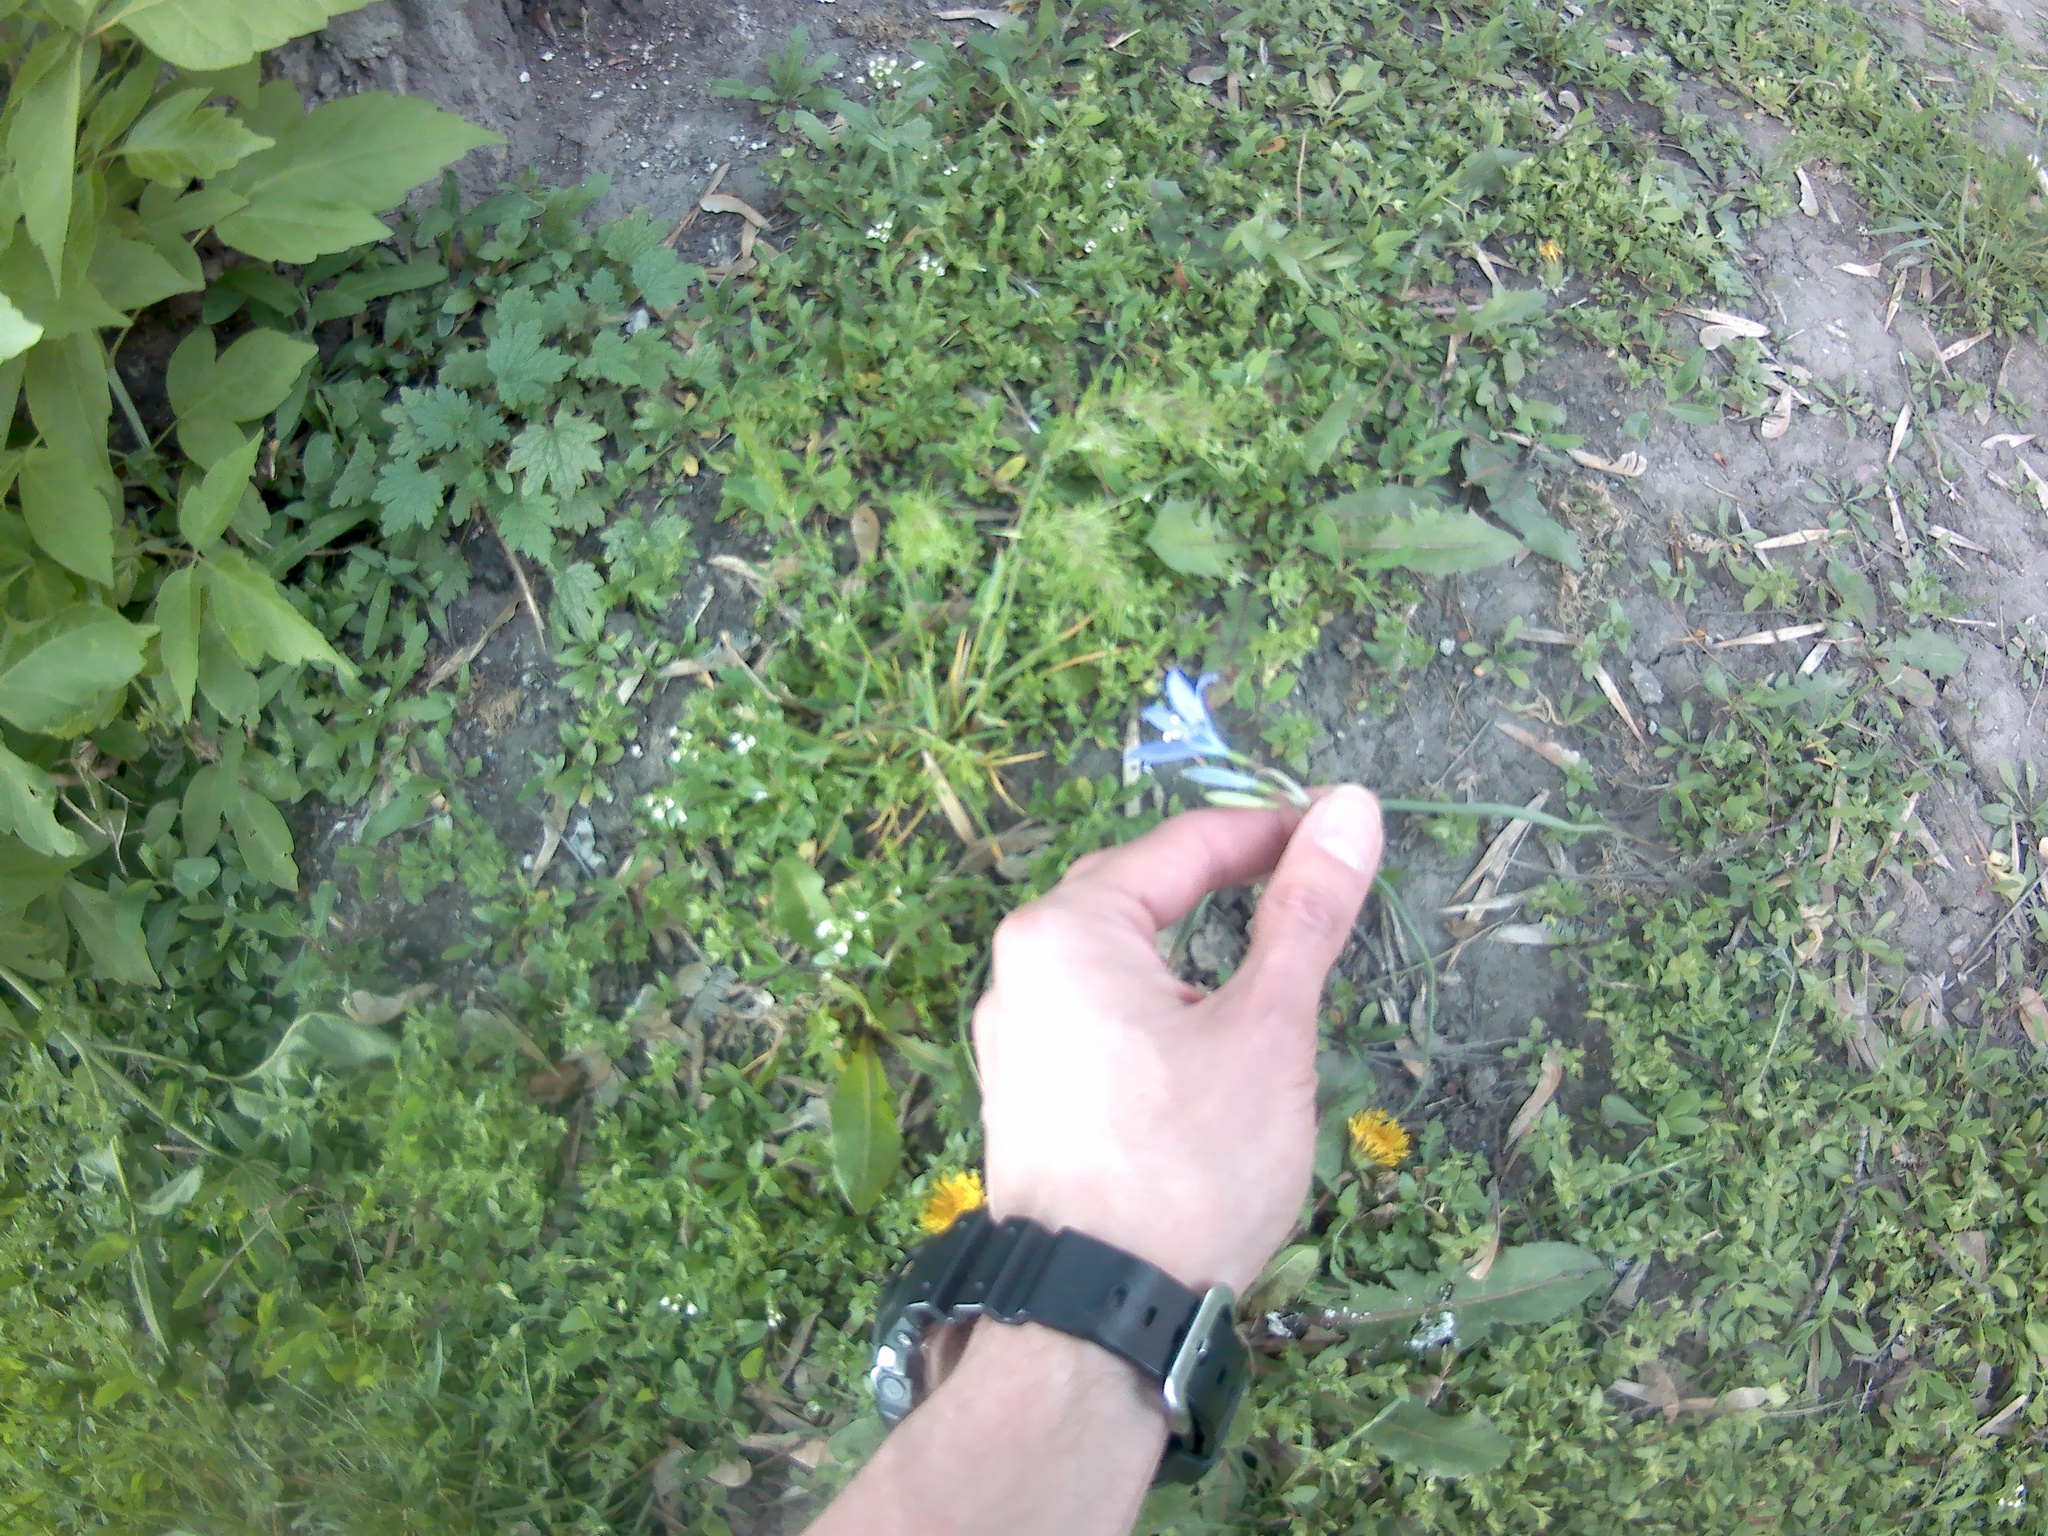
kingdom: Plantae
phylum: Tracheophyta
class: Liliopsida
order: Asparagales
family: Ixioliriaceae
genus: Ixiolirion
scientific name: Ixiolirion tataricum
